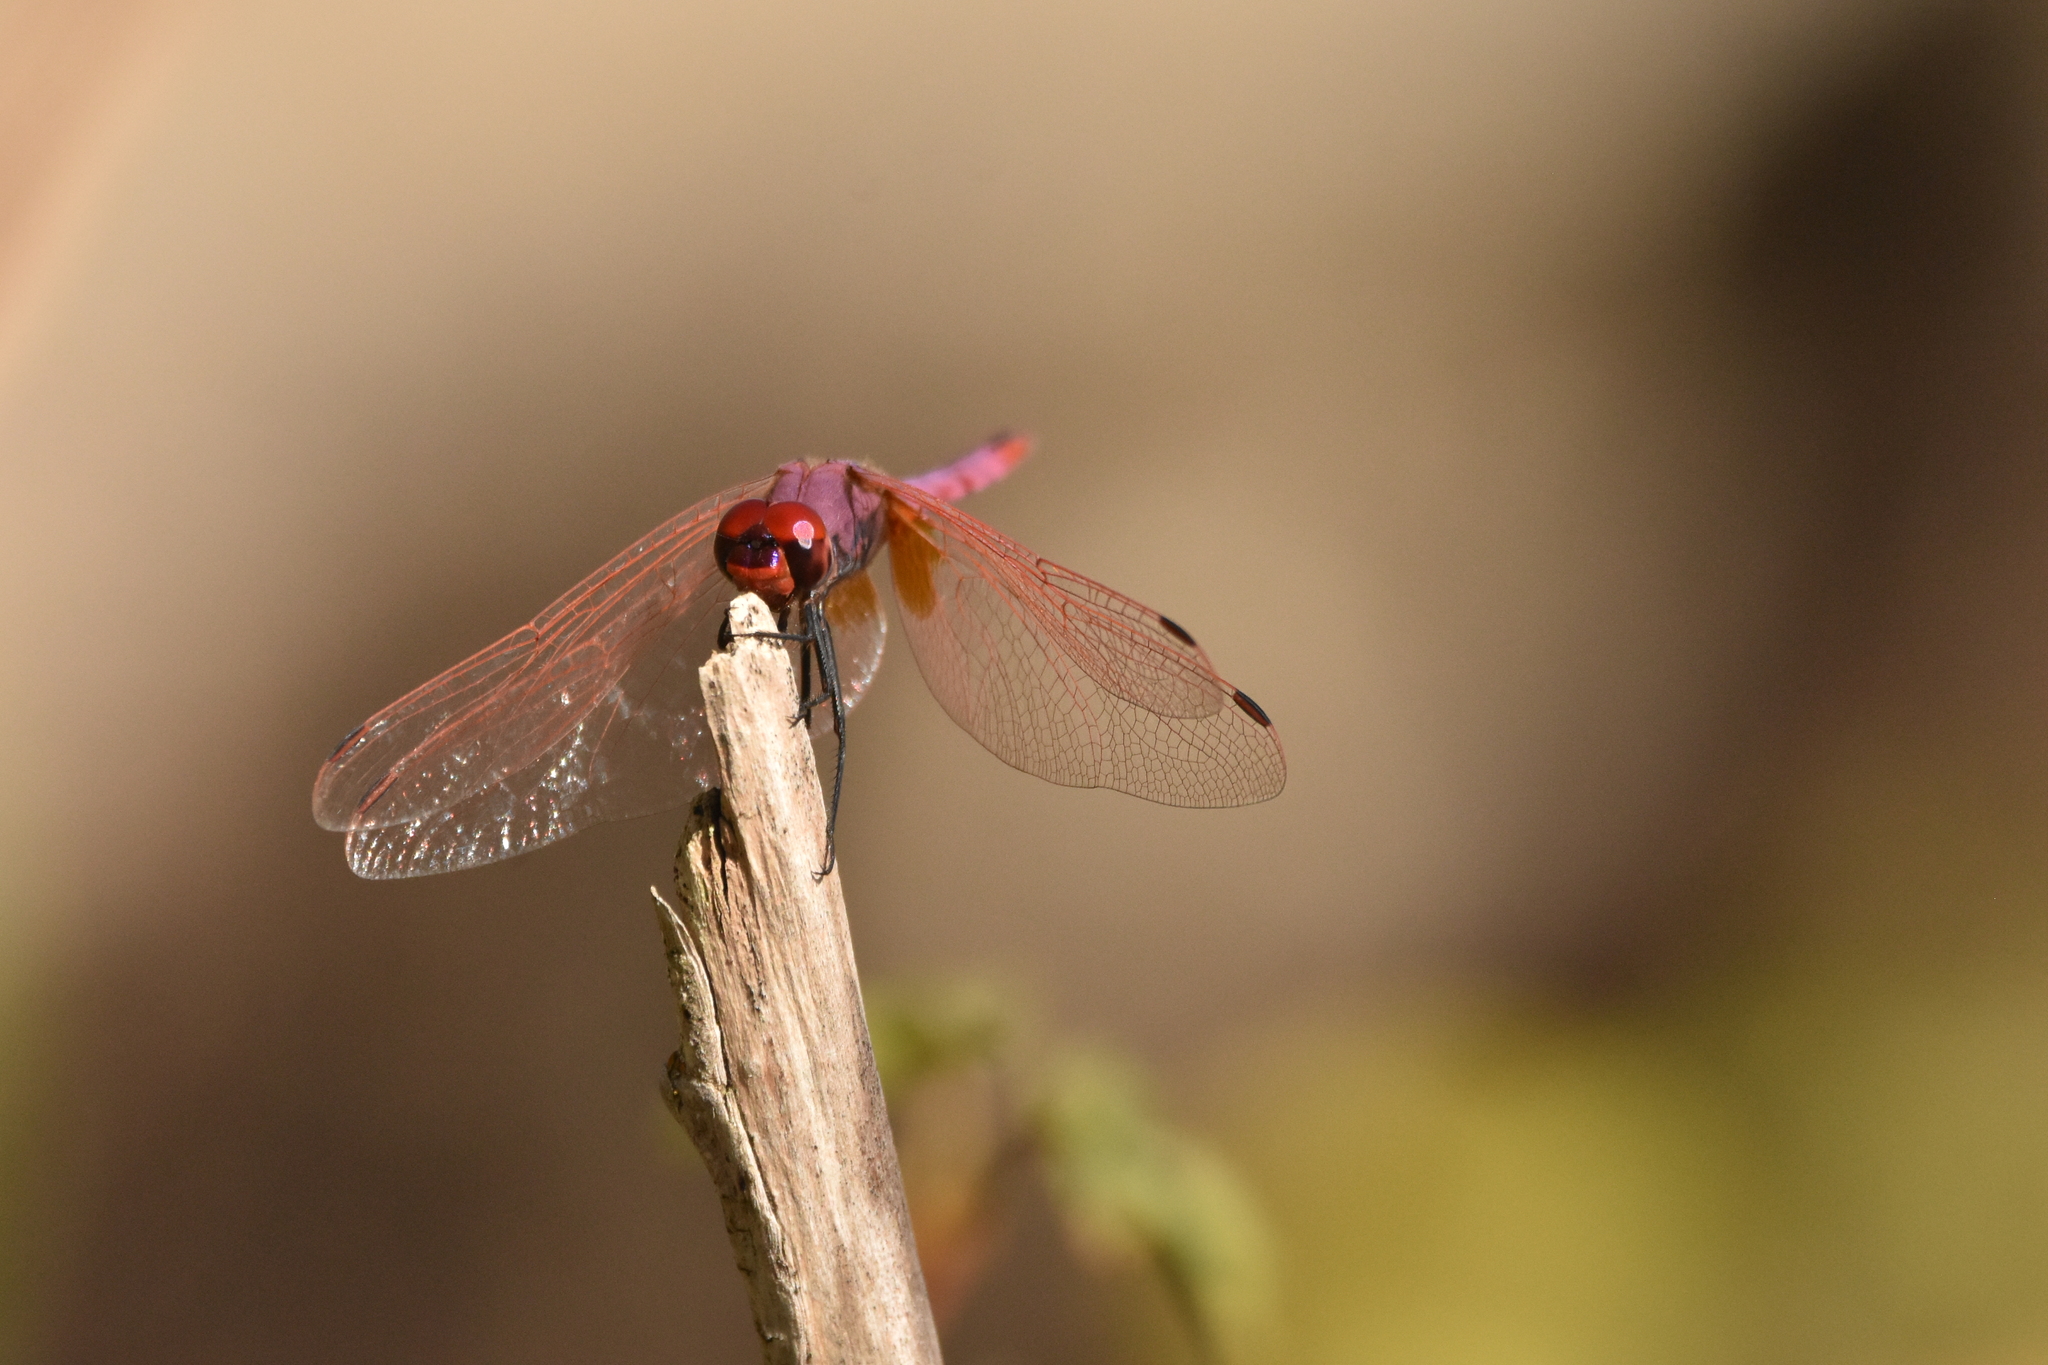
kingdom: Animalia
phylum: Arthropoda
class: Insecta
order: Odonata
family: Libellulidae
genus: Trithemis
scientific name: Trithemis annulata
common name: Violet dropwing
